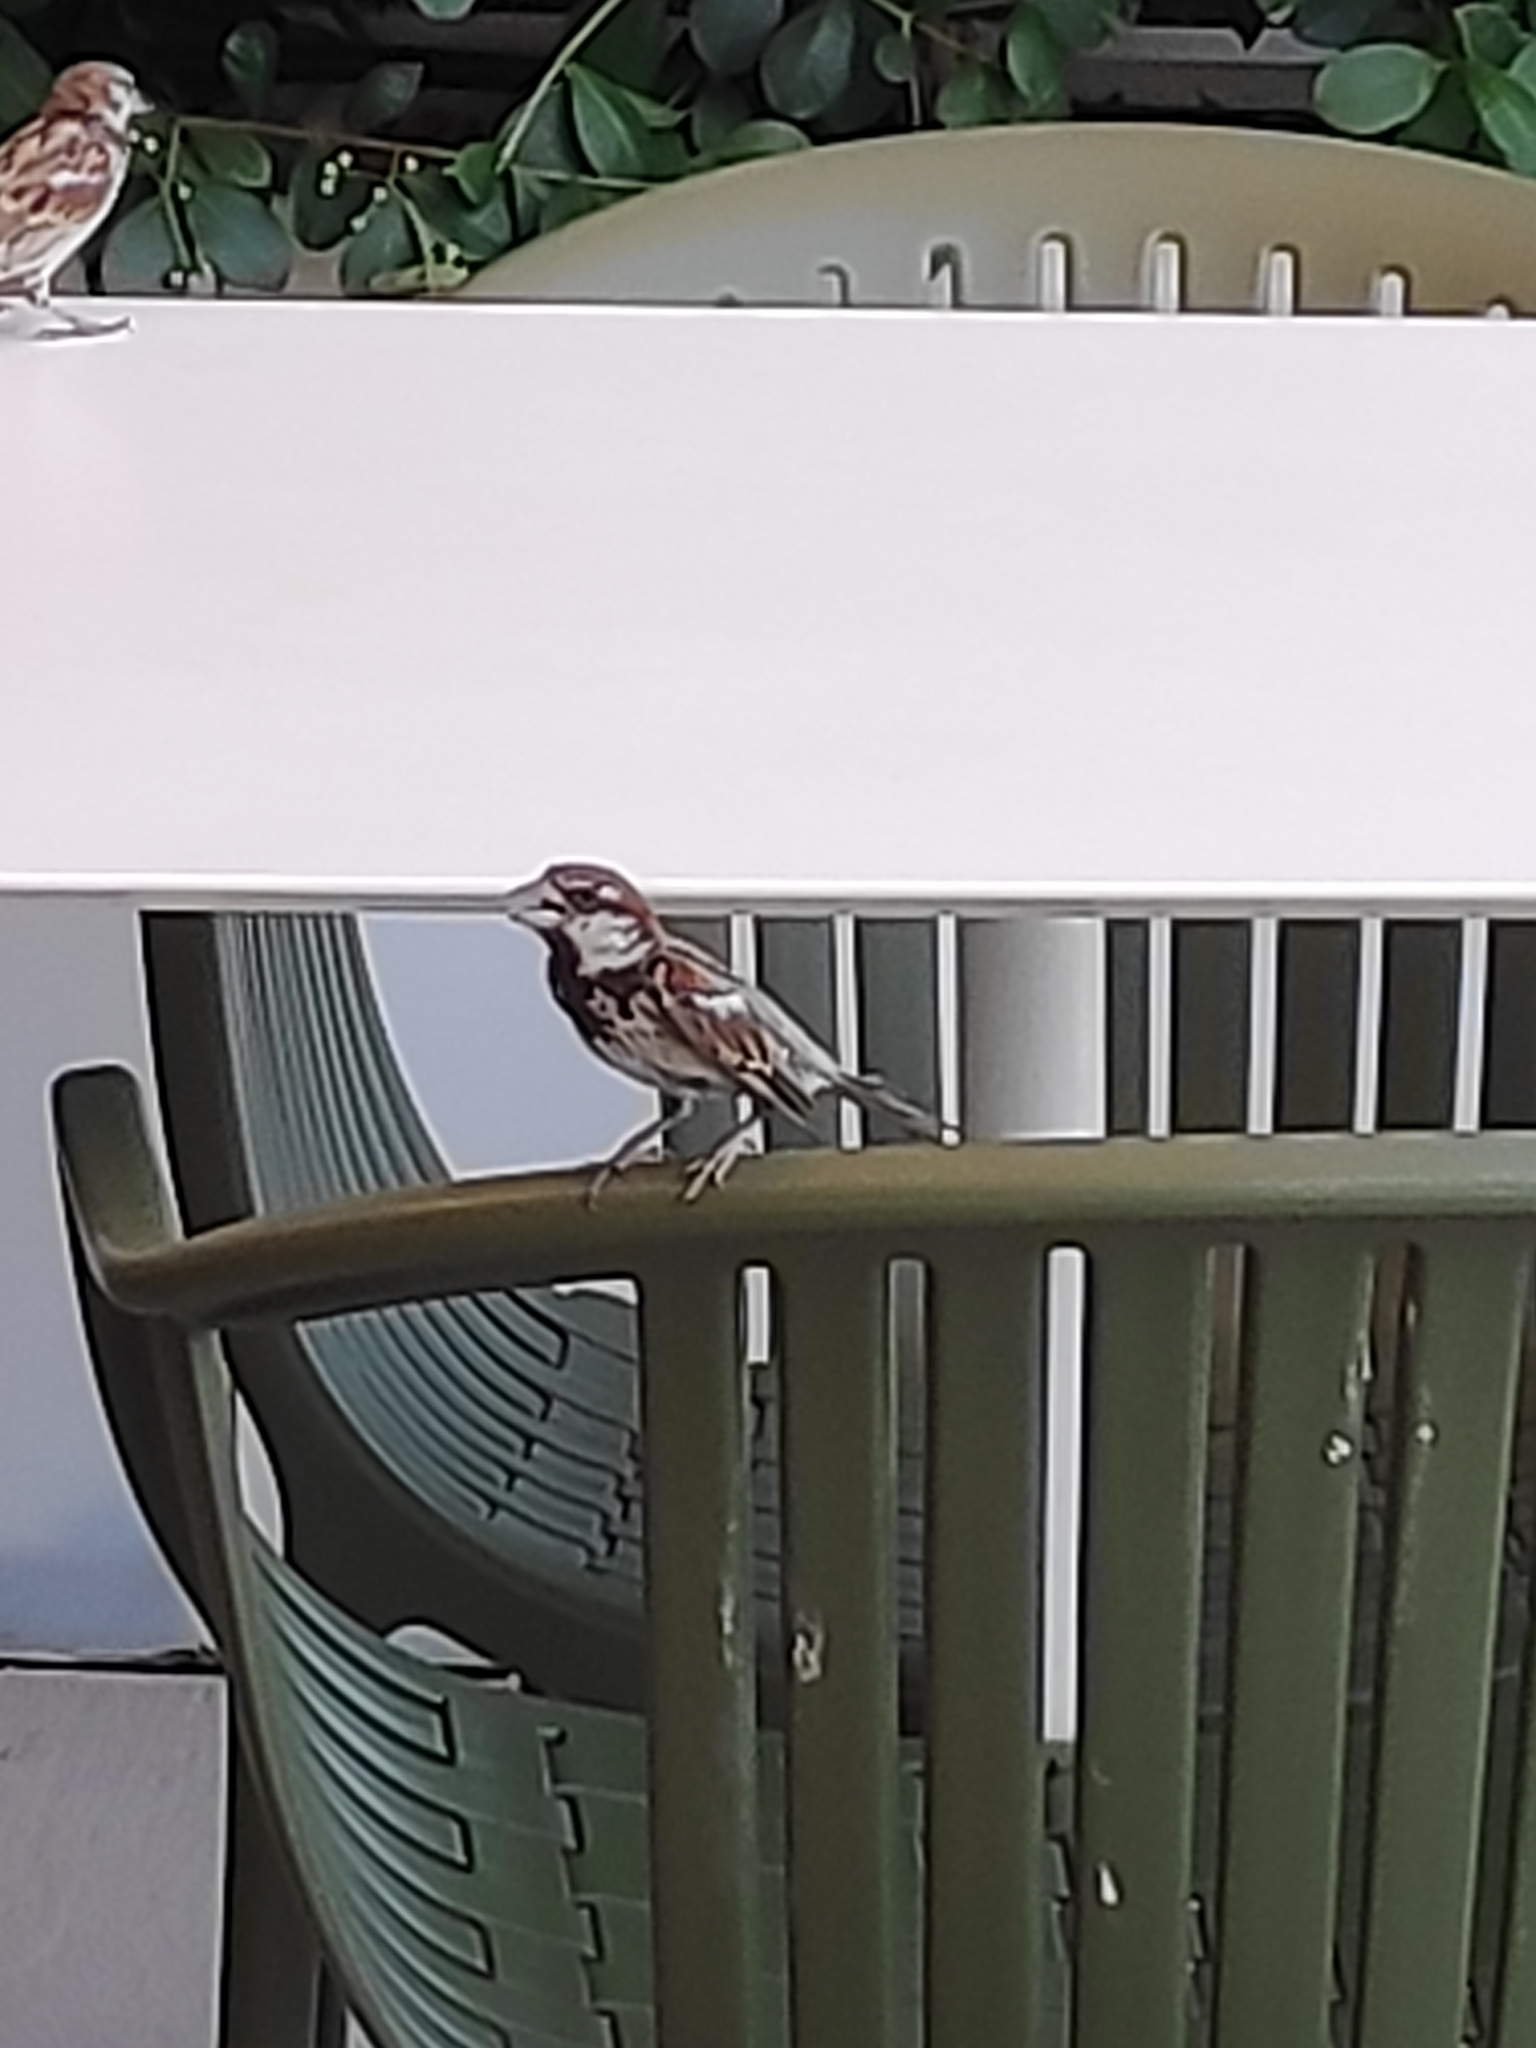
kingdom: Animalia
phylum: Chordata
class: Aves
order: Passeriformes
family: Passeridae
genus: Passer
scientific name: Passer hispaniolensis
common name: Spanish sparrow
